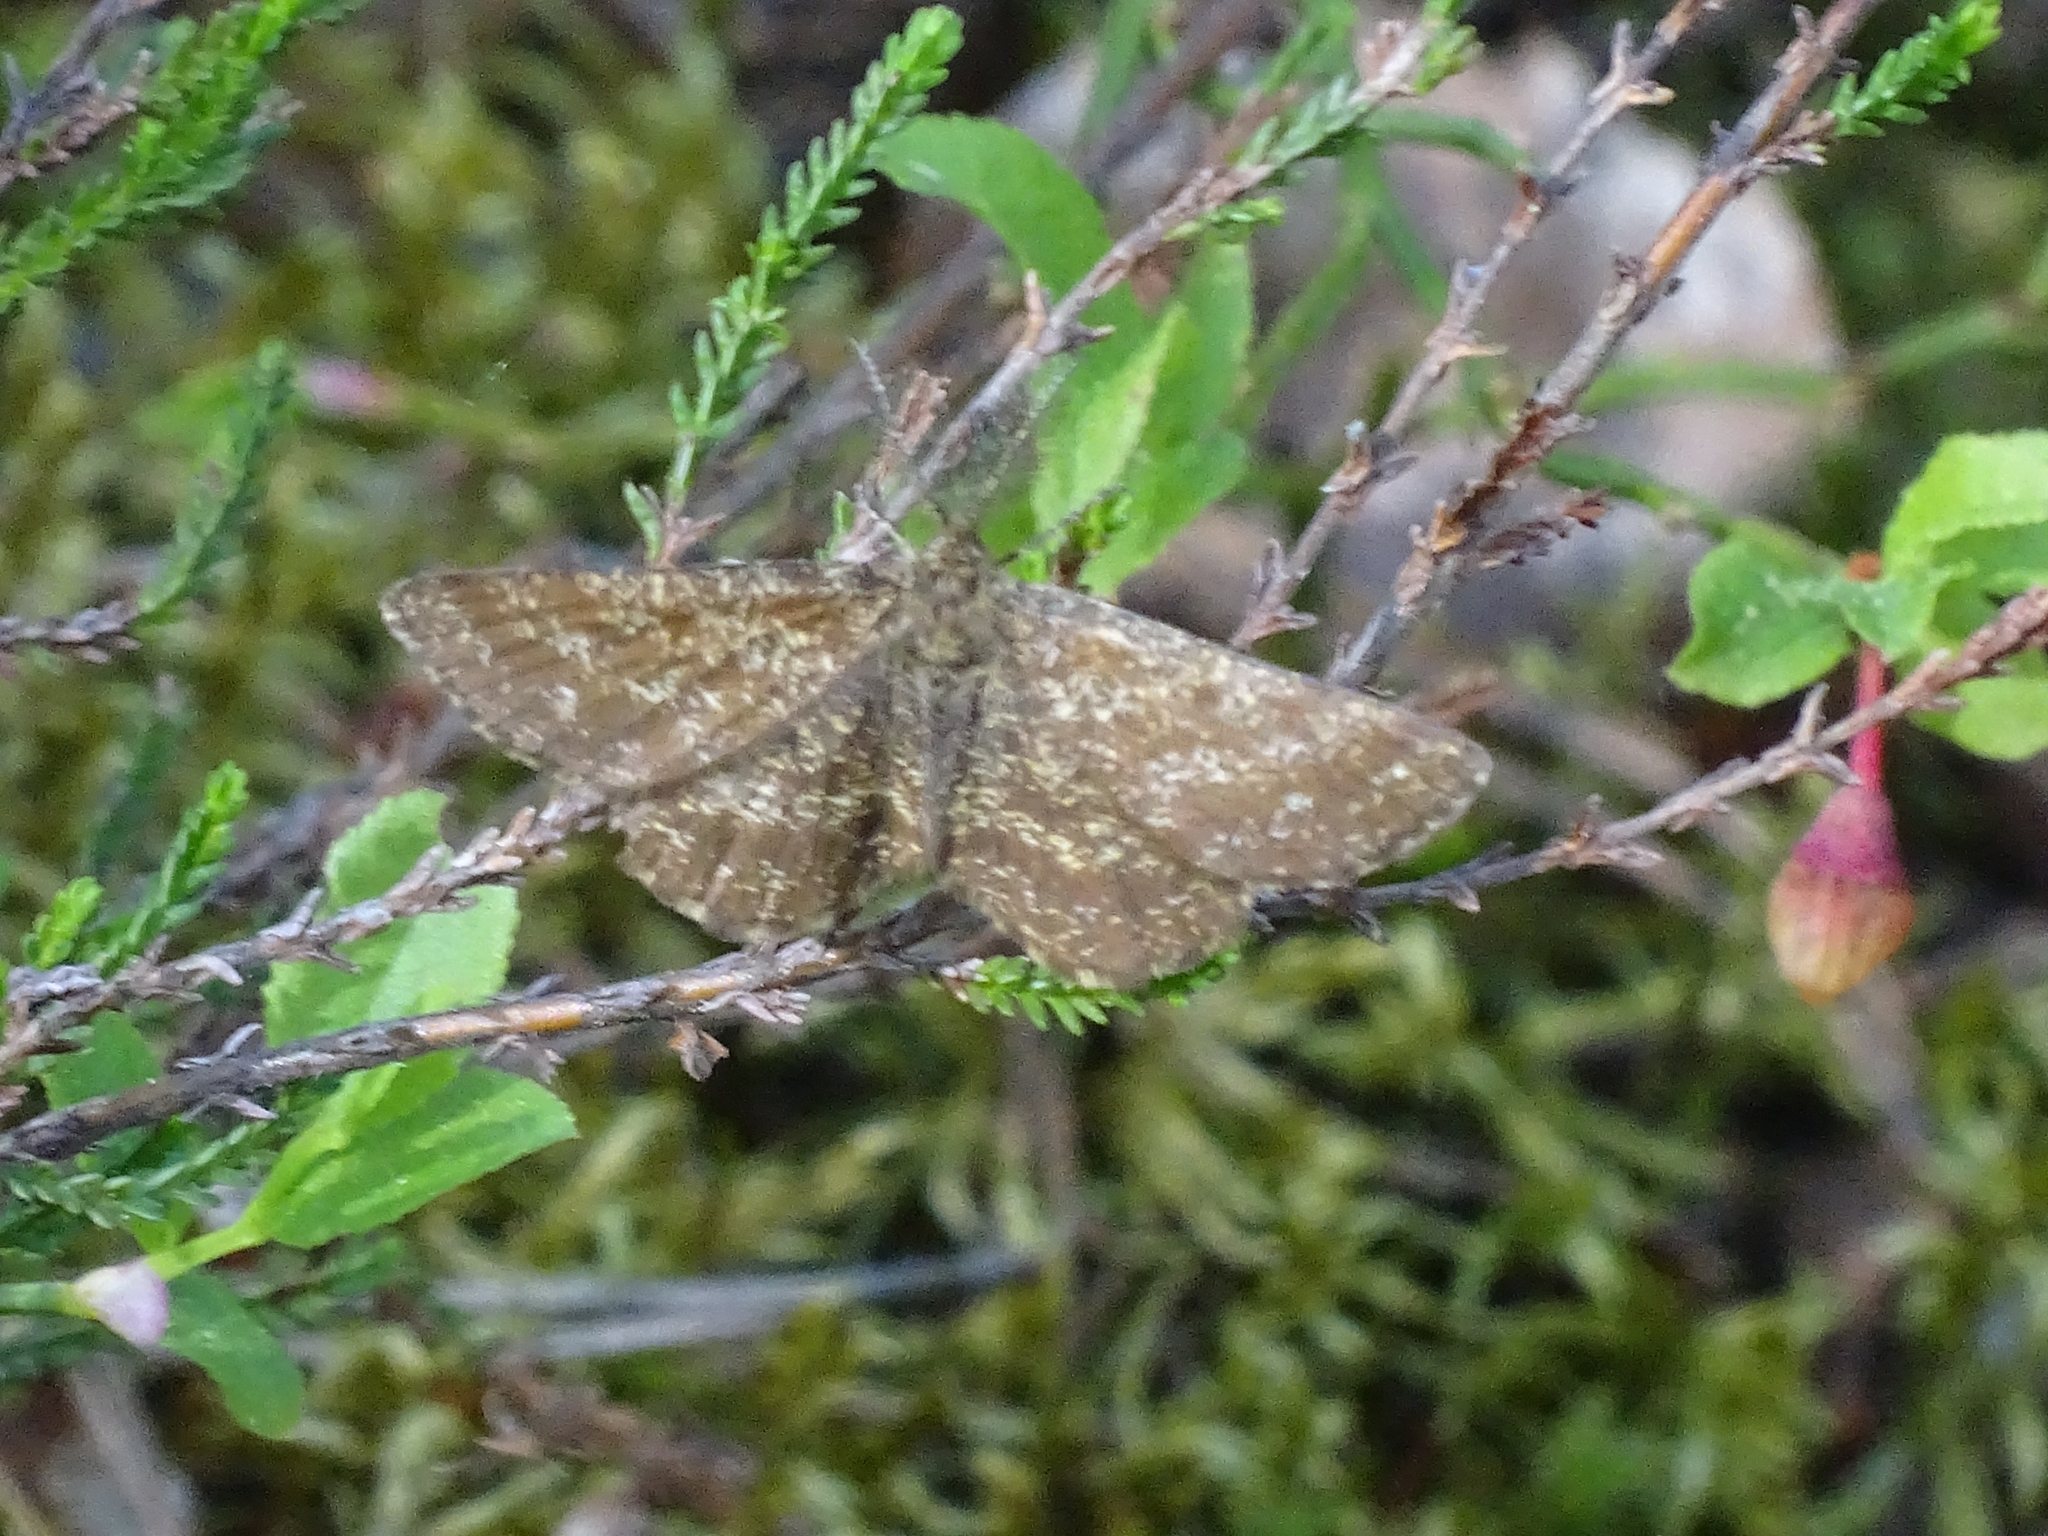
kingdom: Animalia
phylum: Arthropoda
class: Insecta
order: Lepidoptera
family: Geometridae
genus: Ematurga
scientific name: Ematurga atomaria
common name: Common heath
